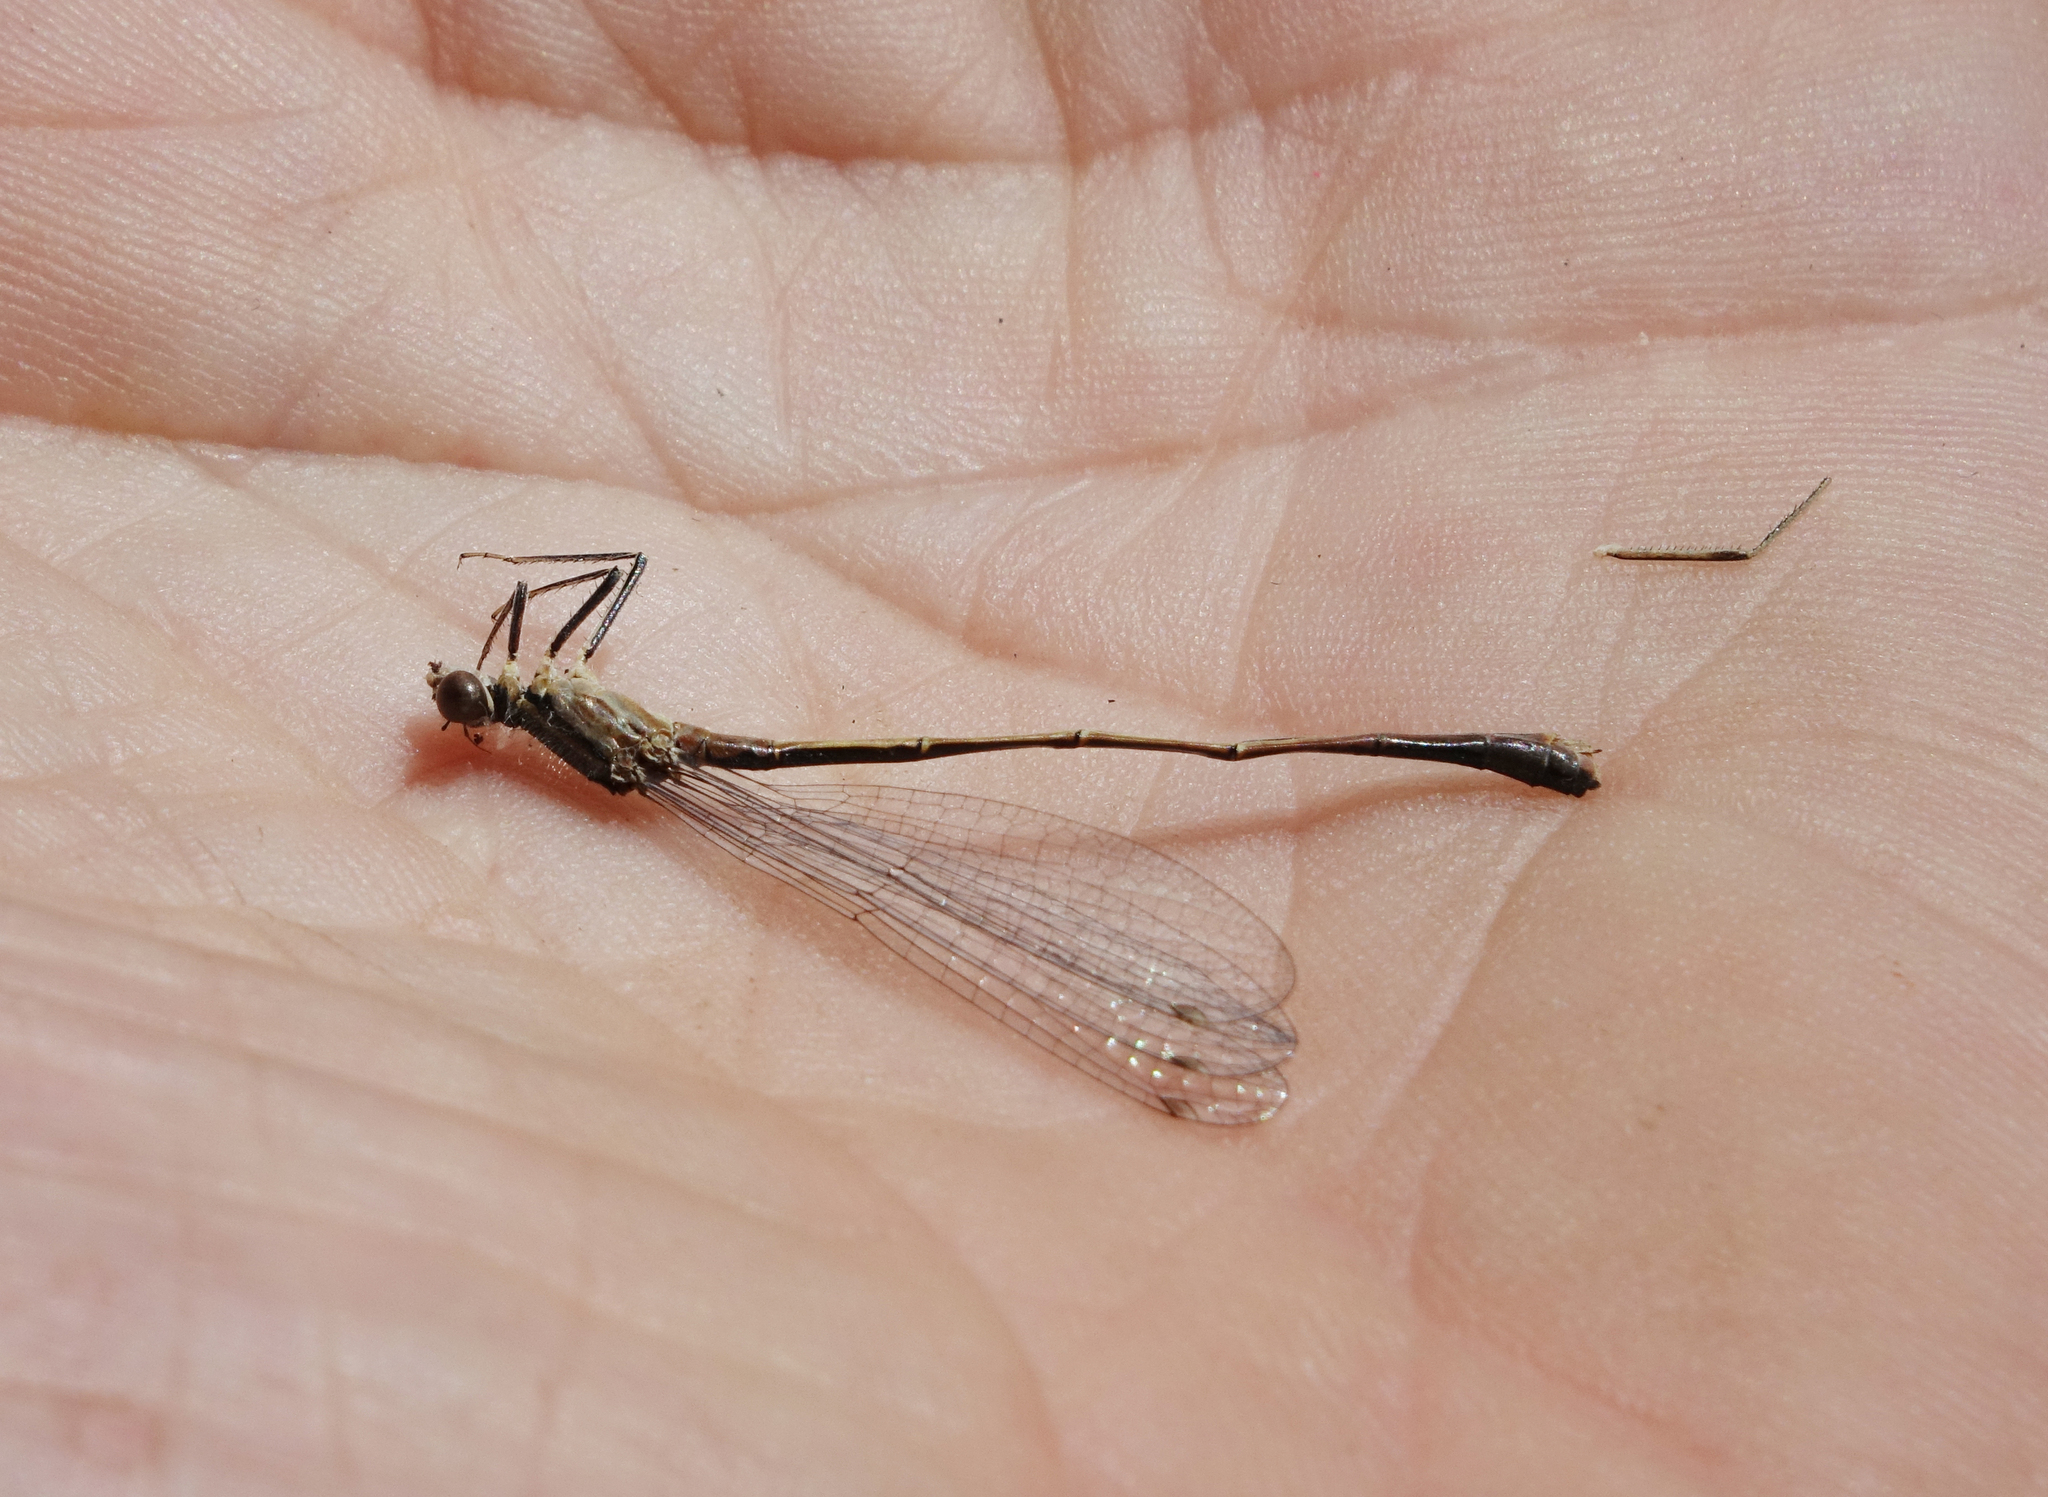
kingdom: Animalia
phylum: Arthropoda
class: Insecta
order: Odonata
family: Coenagrionidae
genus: Ischnura
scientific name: Ischnura elegans
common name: Blue-tailed damselfly
